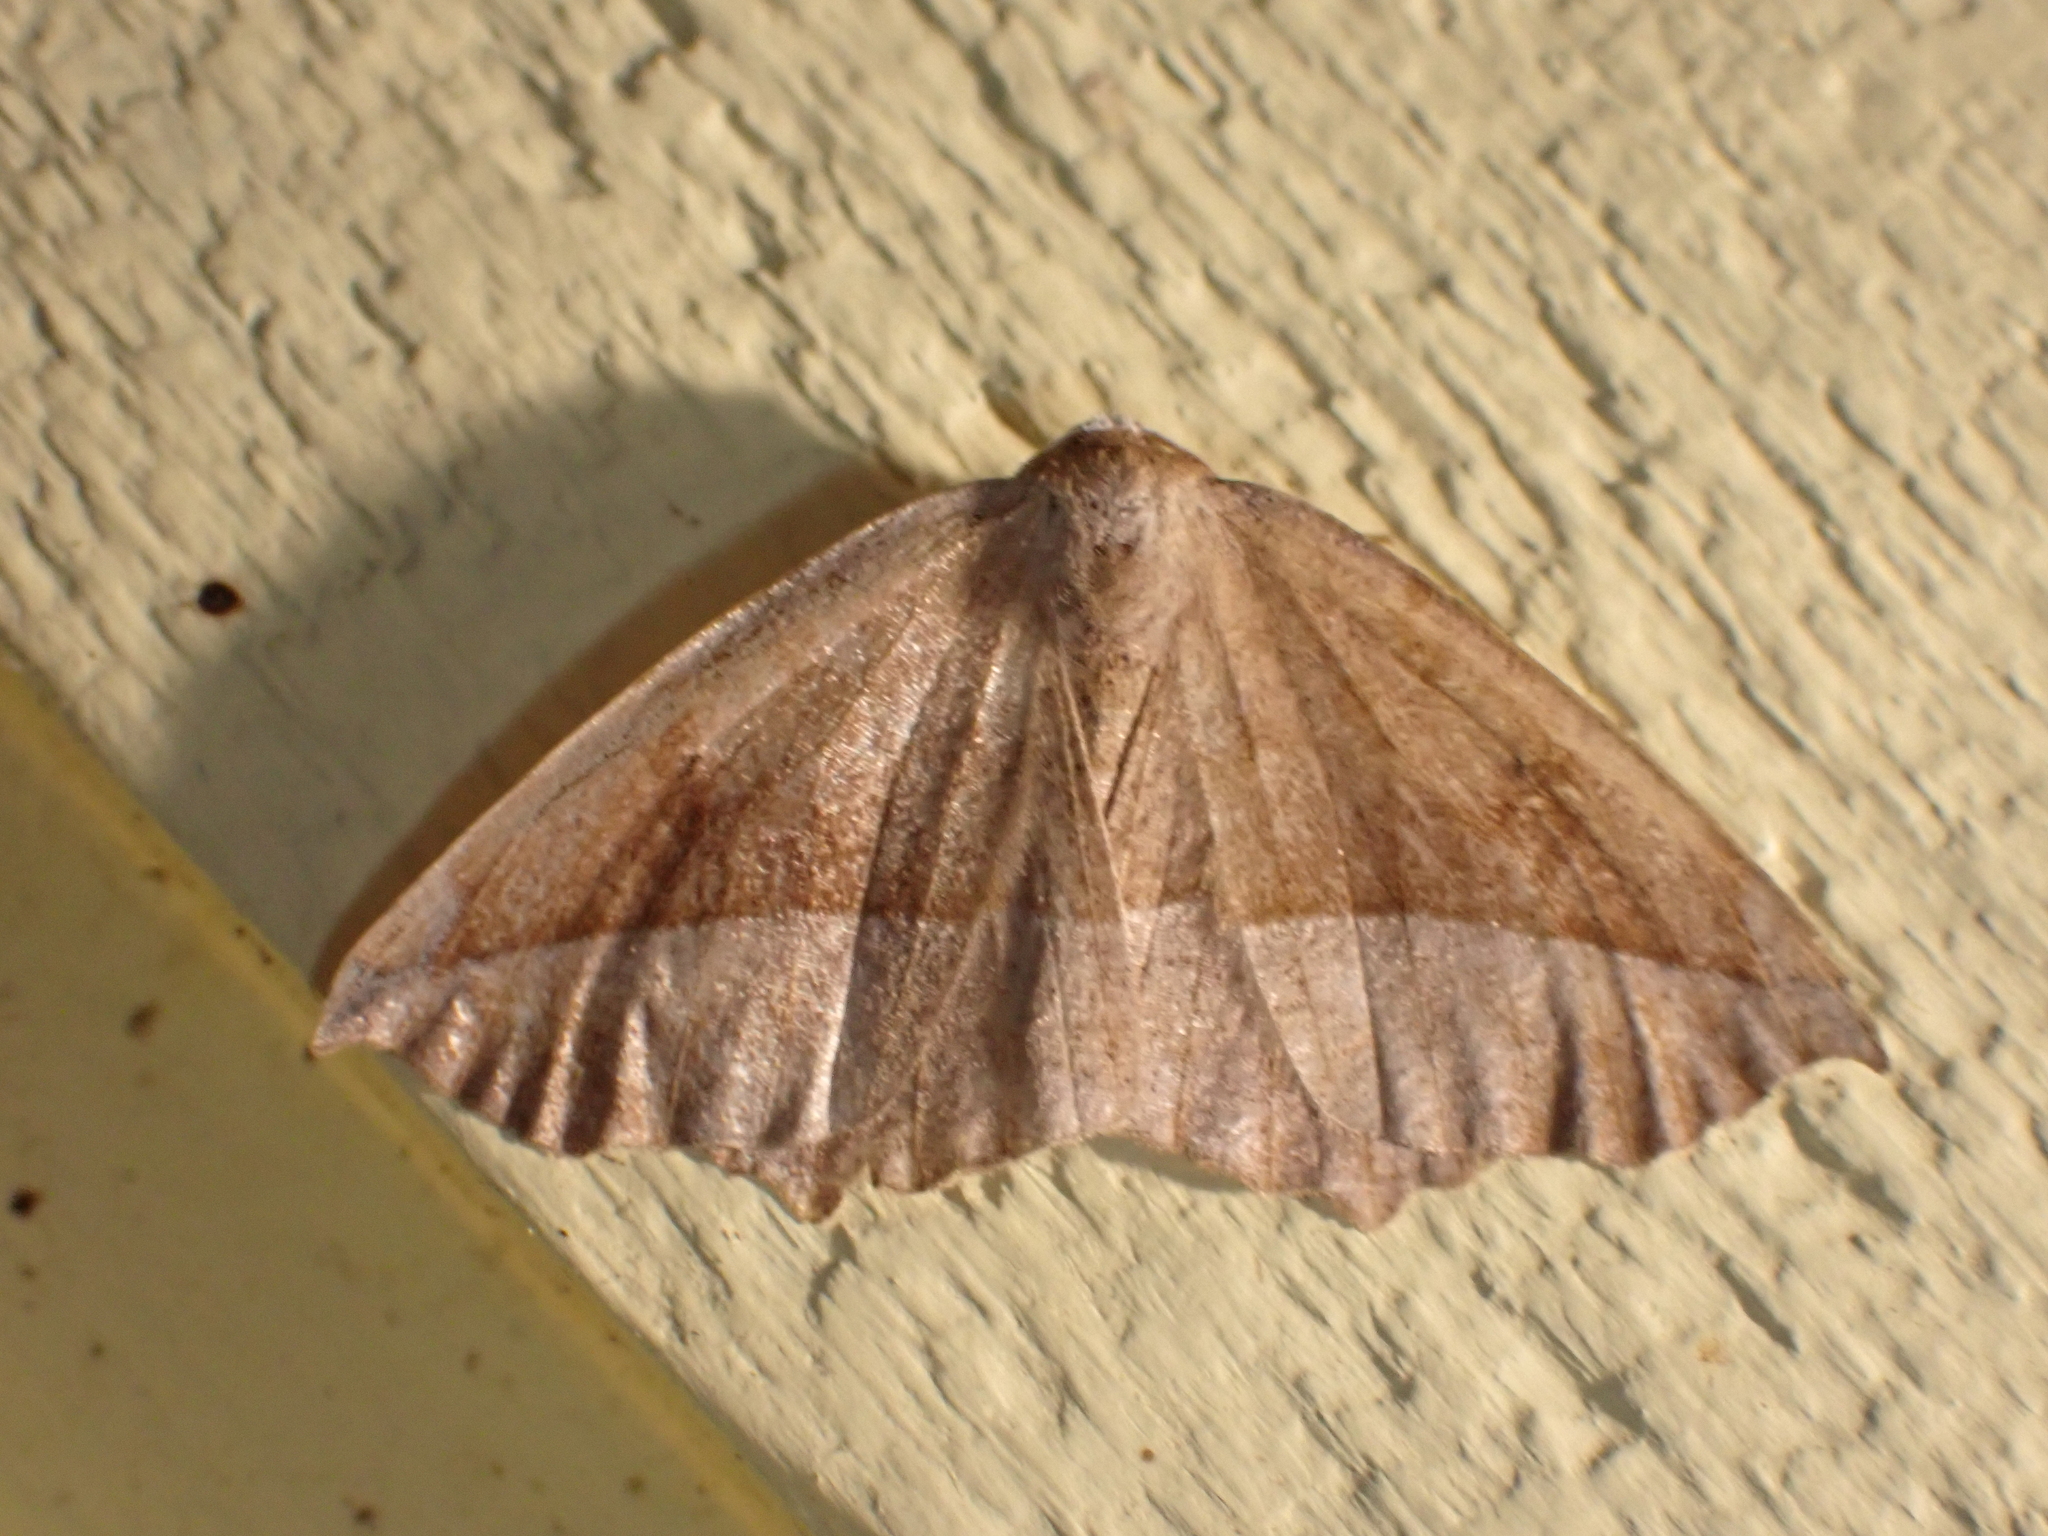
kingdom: Animalia
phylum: Arthropoda
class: Insecta
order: Lepidoptera
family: Geometridae
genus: Eutrapela
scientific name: Eutrapela clemataria
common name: Curved-toothed geometer
